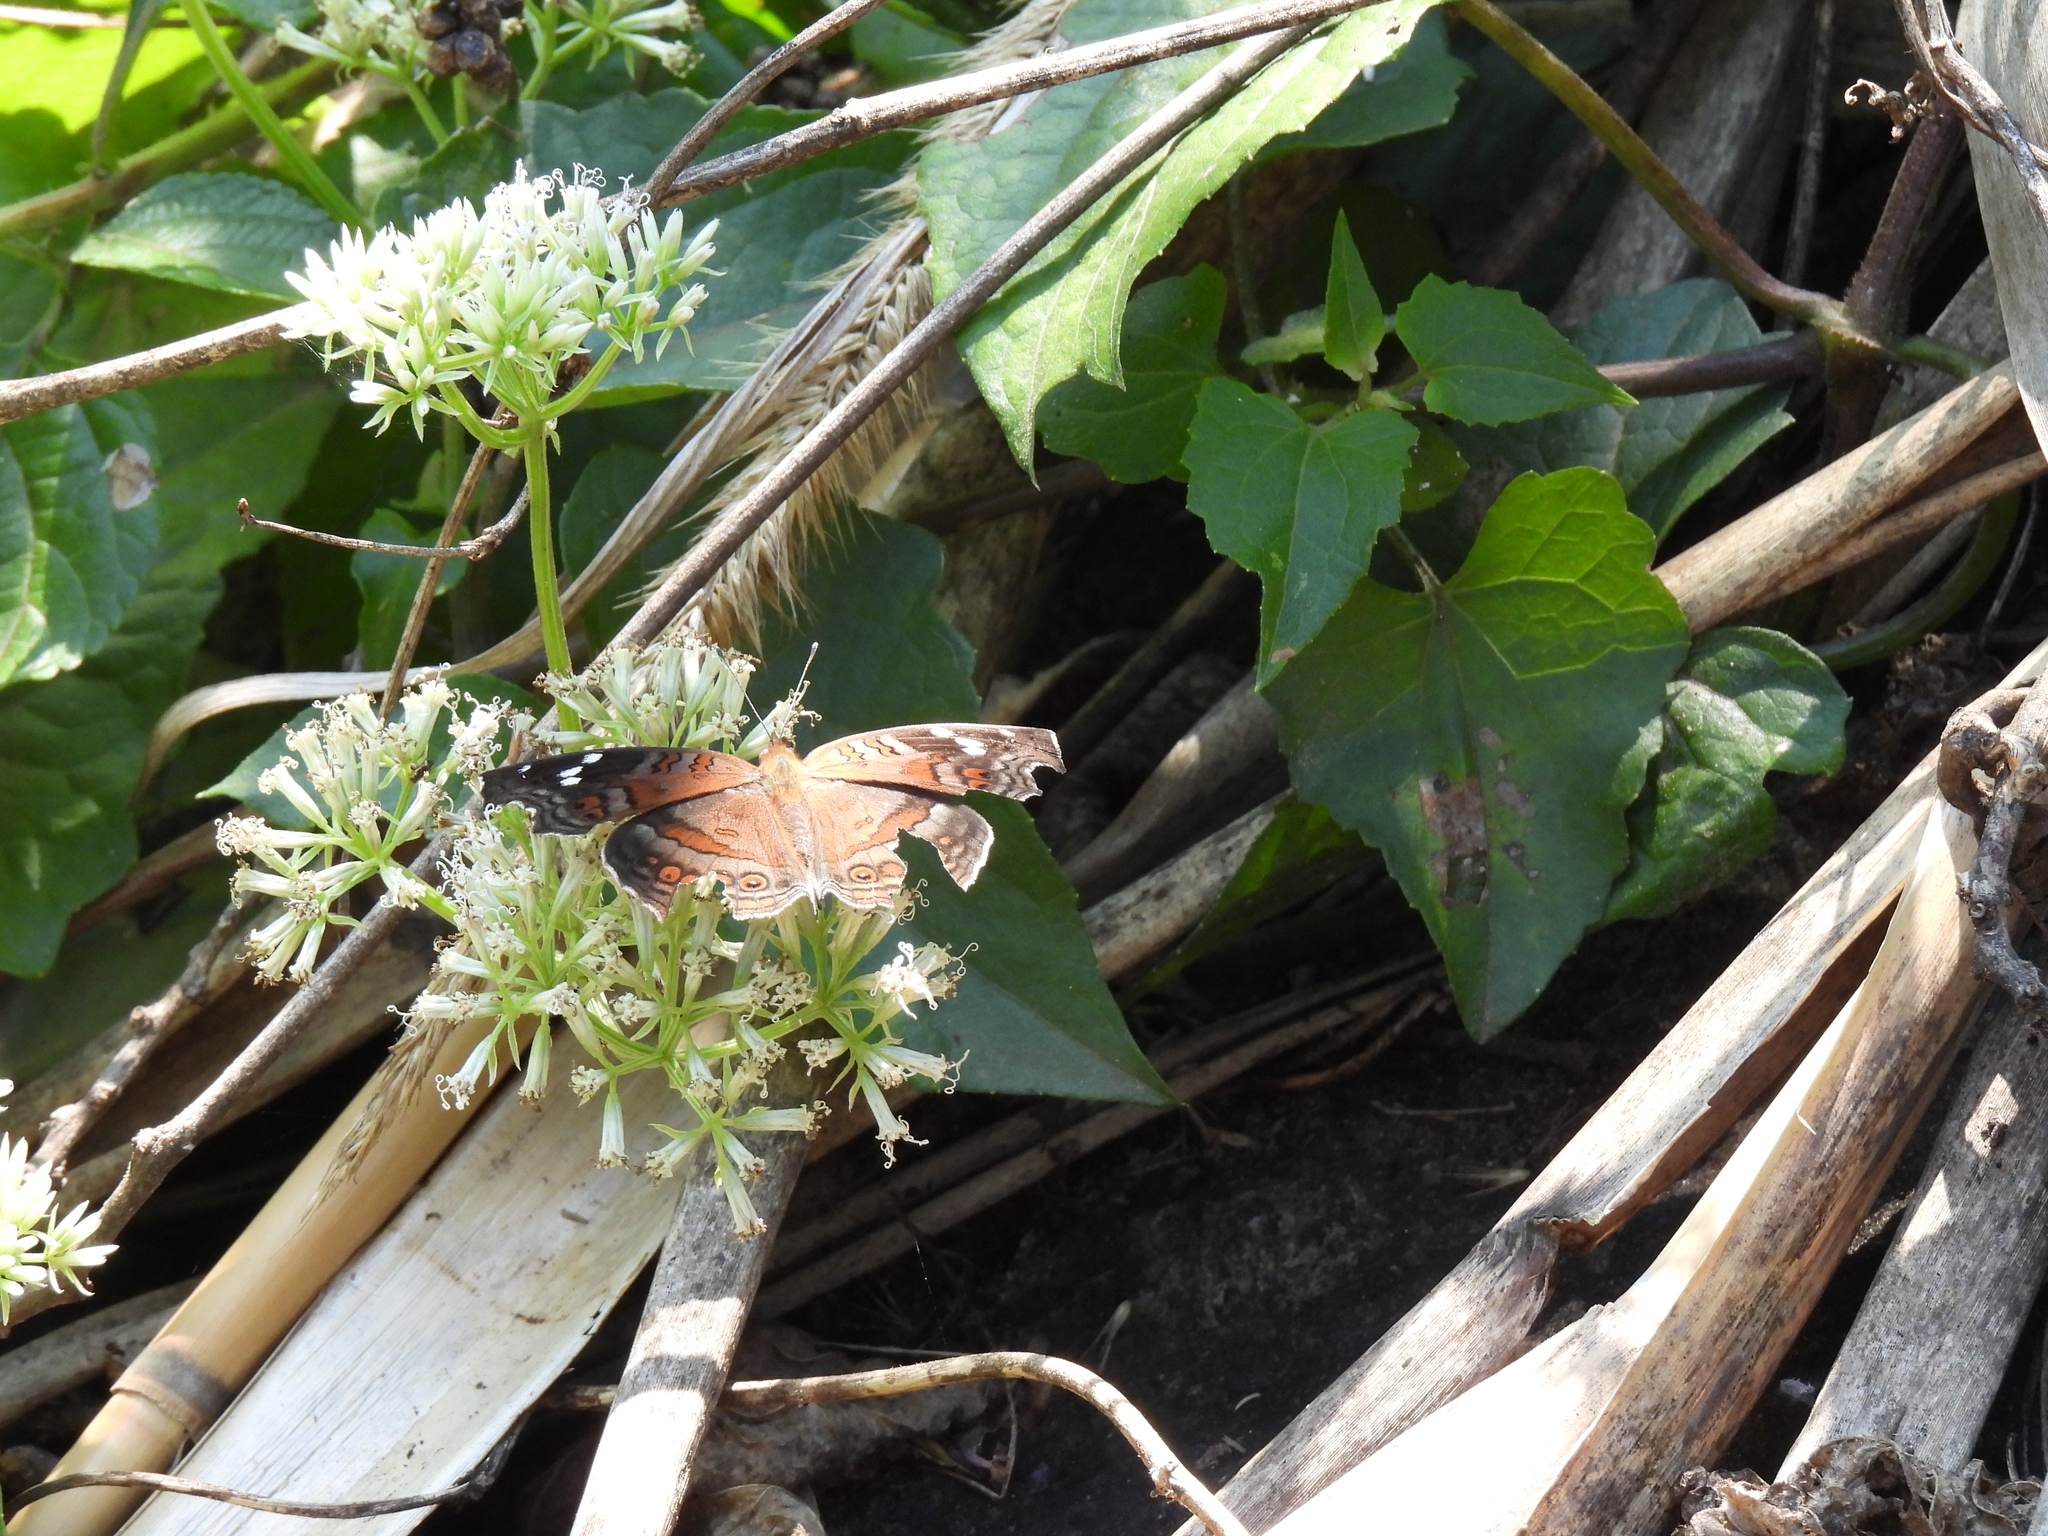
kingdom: Animalia
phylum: Arthropoda
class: Insecta
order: Lepidoptera
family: Nymphalidae
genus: Junonia
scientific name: Junonia natalica
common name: Brown pansy
